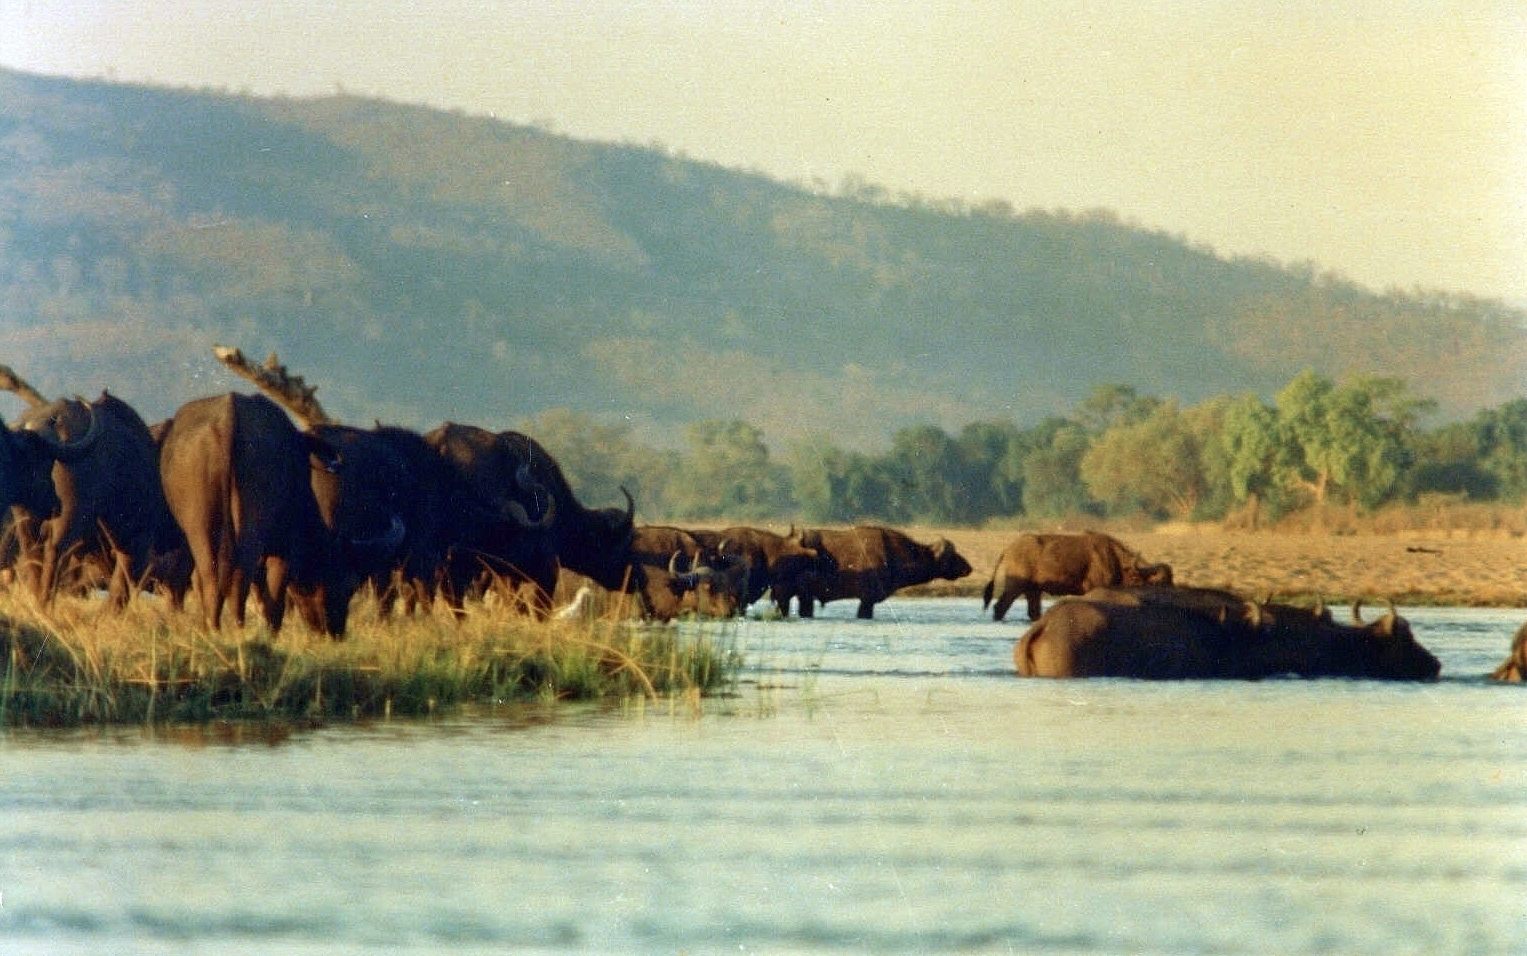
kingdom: Animalia
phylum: Chordata
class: Mammalia
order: Artiodactyla
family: Bovidae
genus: Syncerus
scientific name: Syncerus caffer
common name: African buffalo
